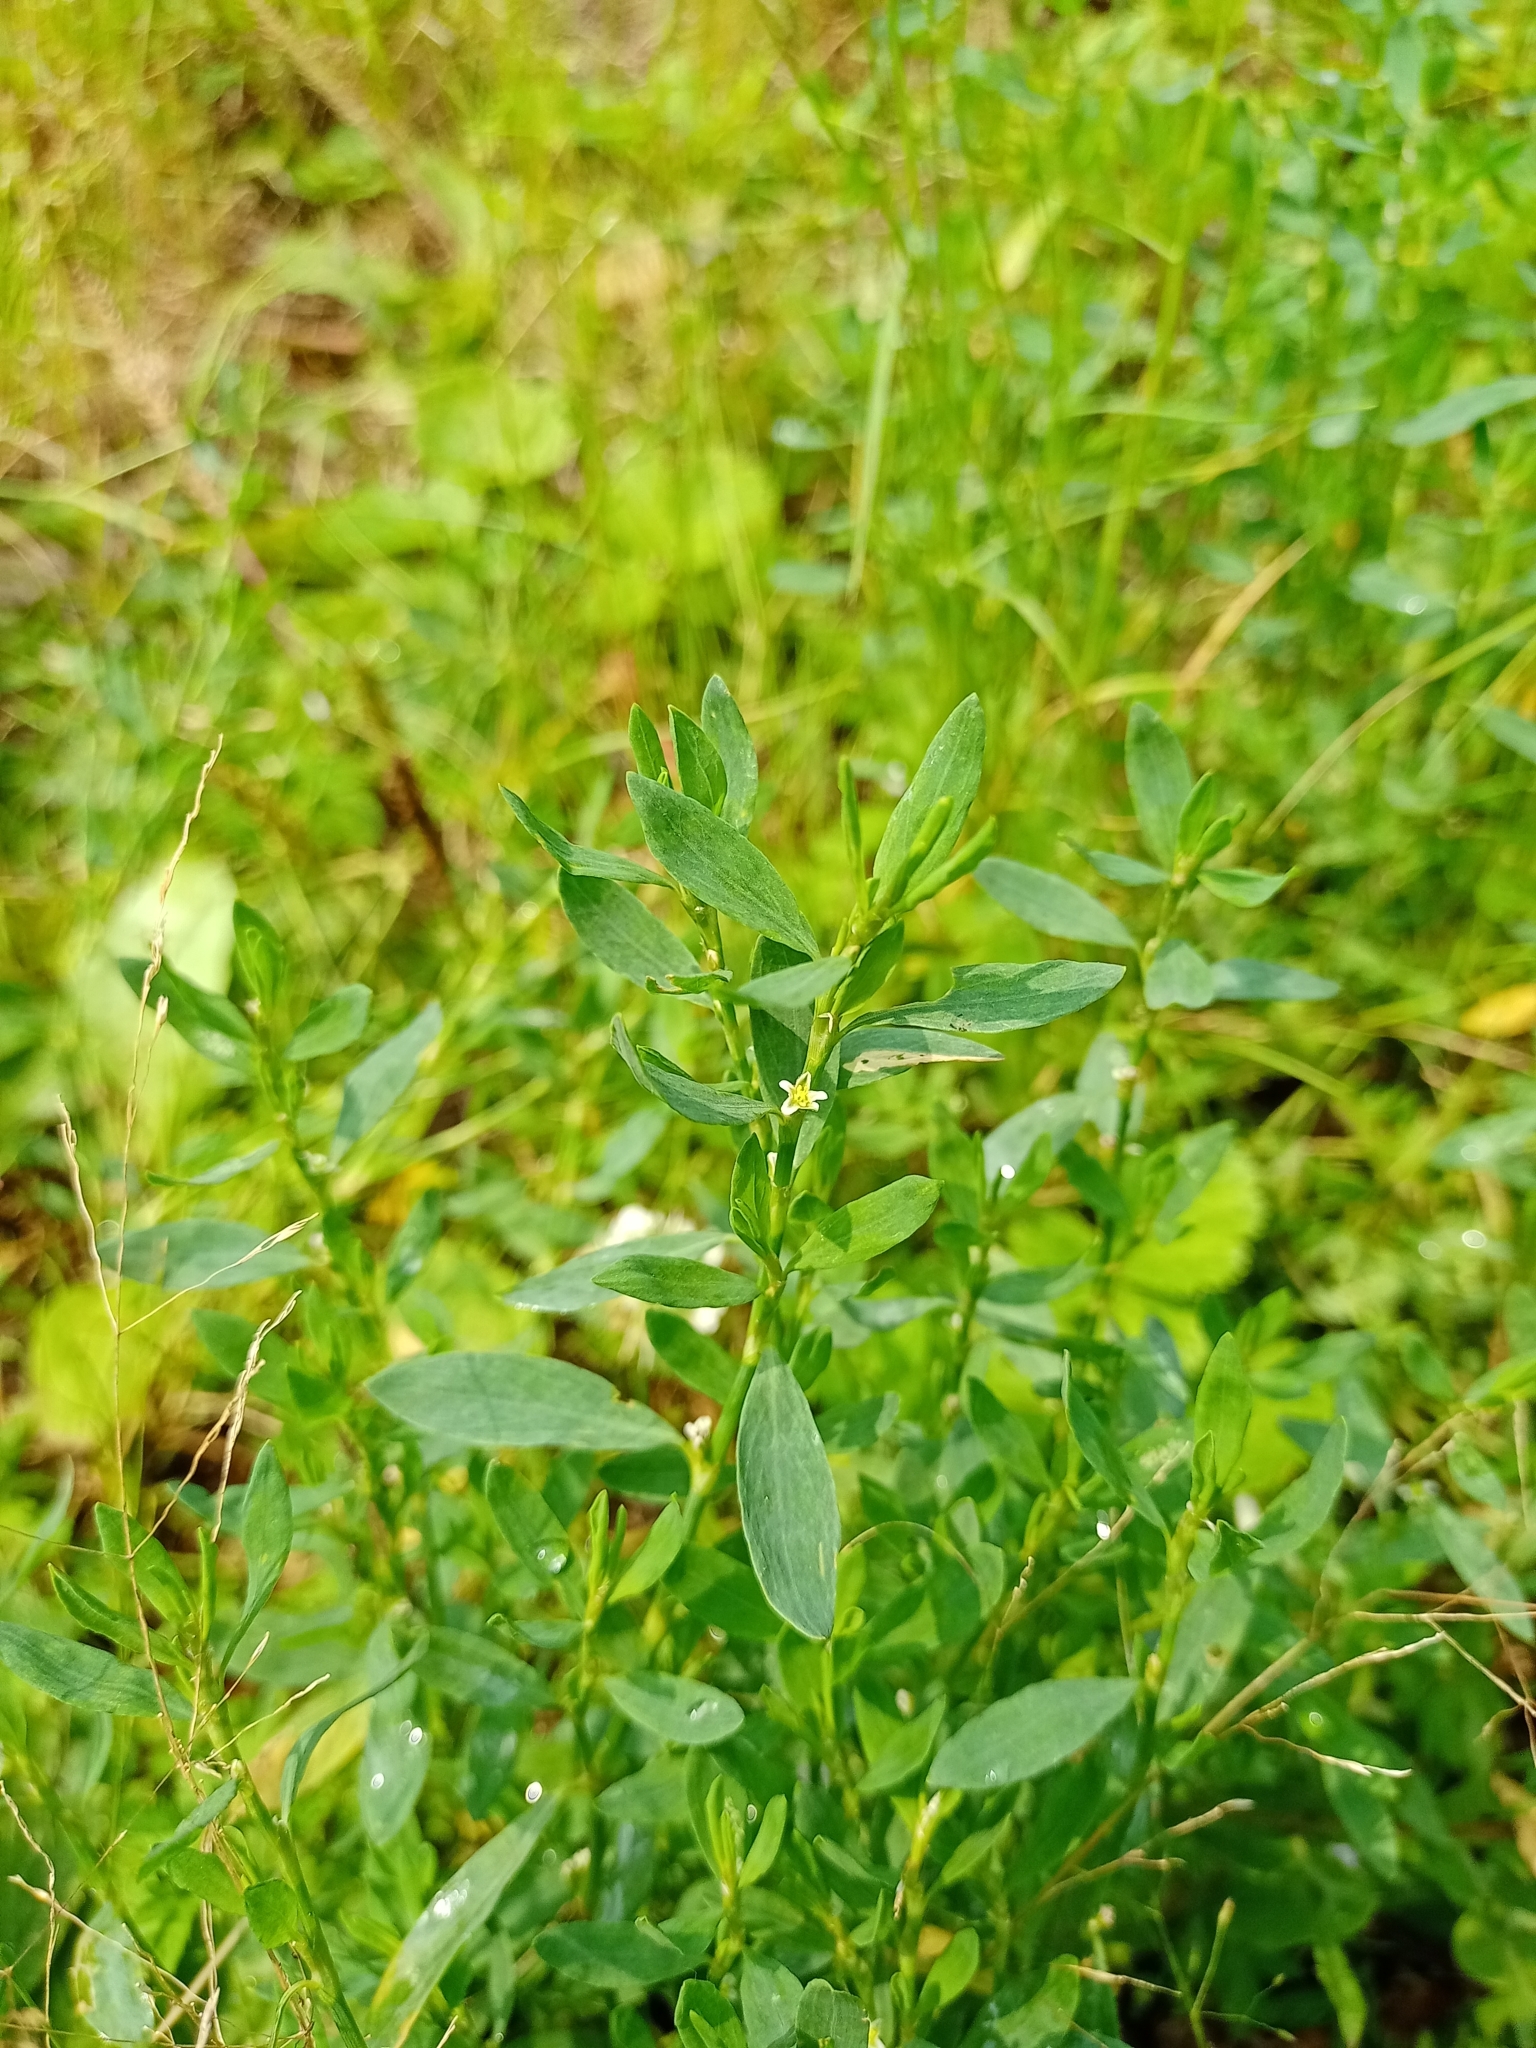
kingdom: Plantae
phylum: Tracheophyta
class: Magnoliopsida
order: Caryophyllales
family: Polygonaceae
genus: Polygonum
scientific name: Polygonum aviculare
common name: Prostrate knotweed
